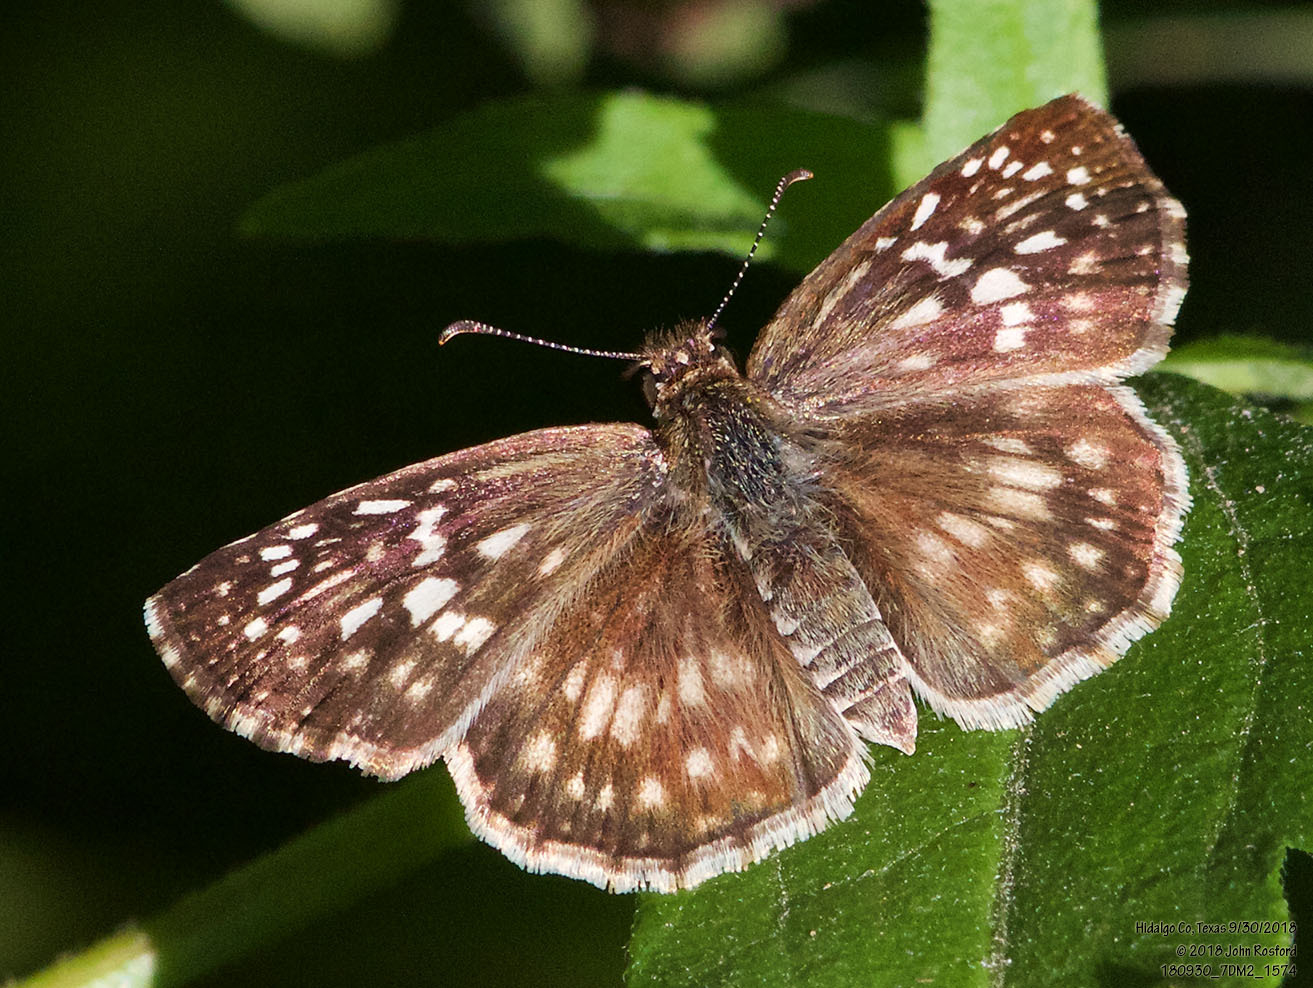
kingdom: Animalia
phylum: Arthropoda
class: Insecta
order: Lepidoptera
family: Hesperiidae
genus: Pyrgus
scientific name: Pyrgus oileus
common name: Tropical checkered-skipper
